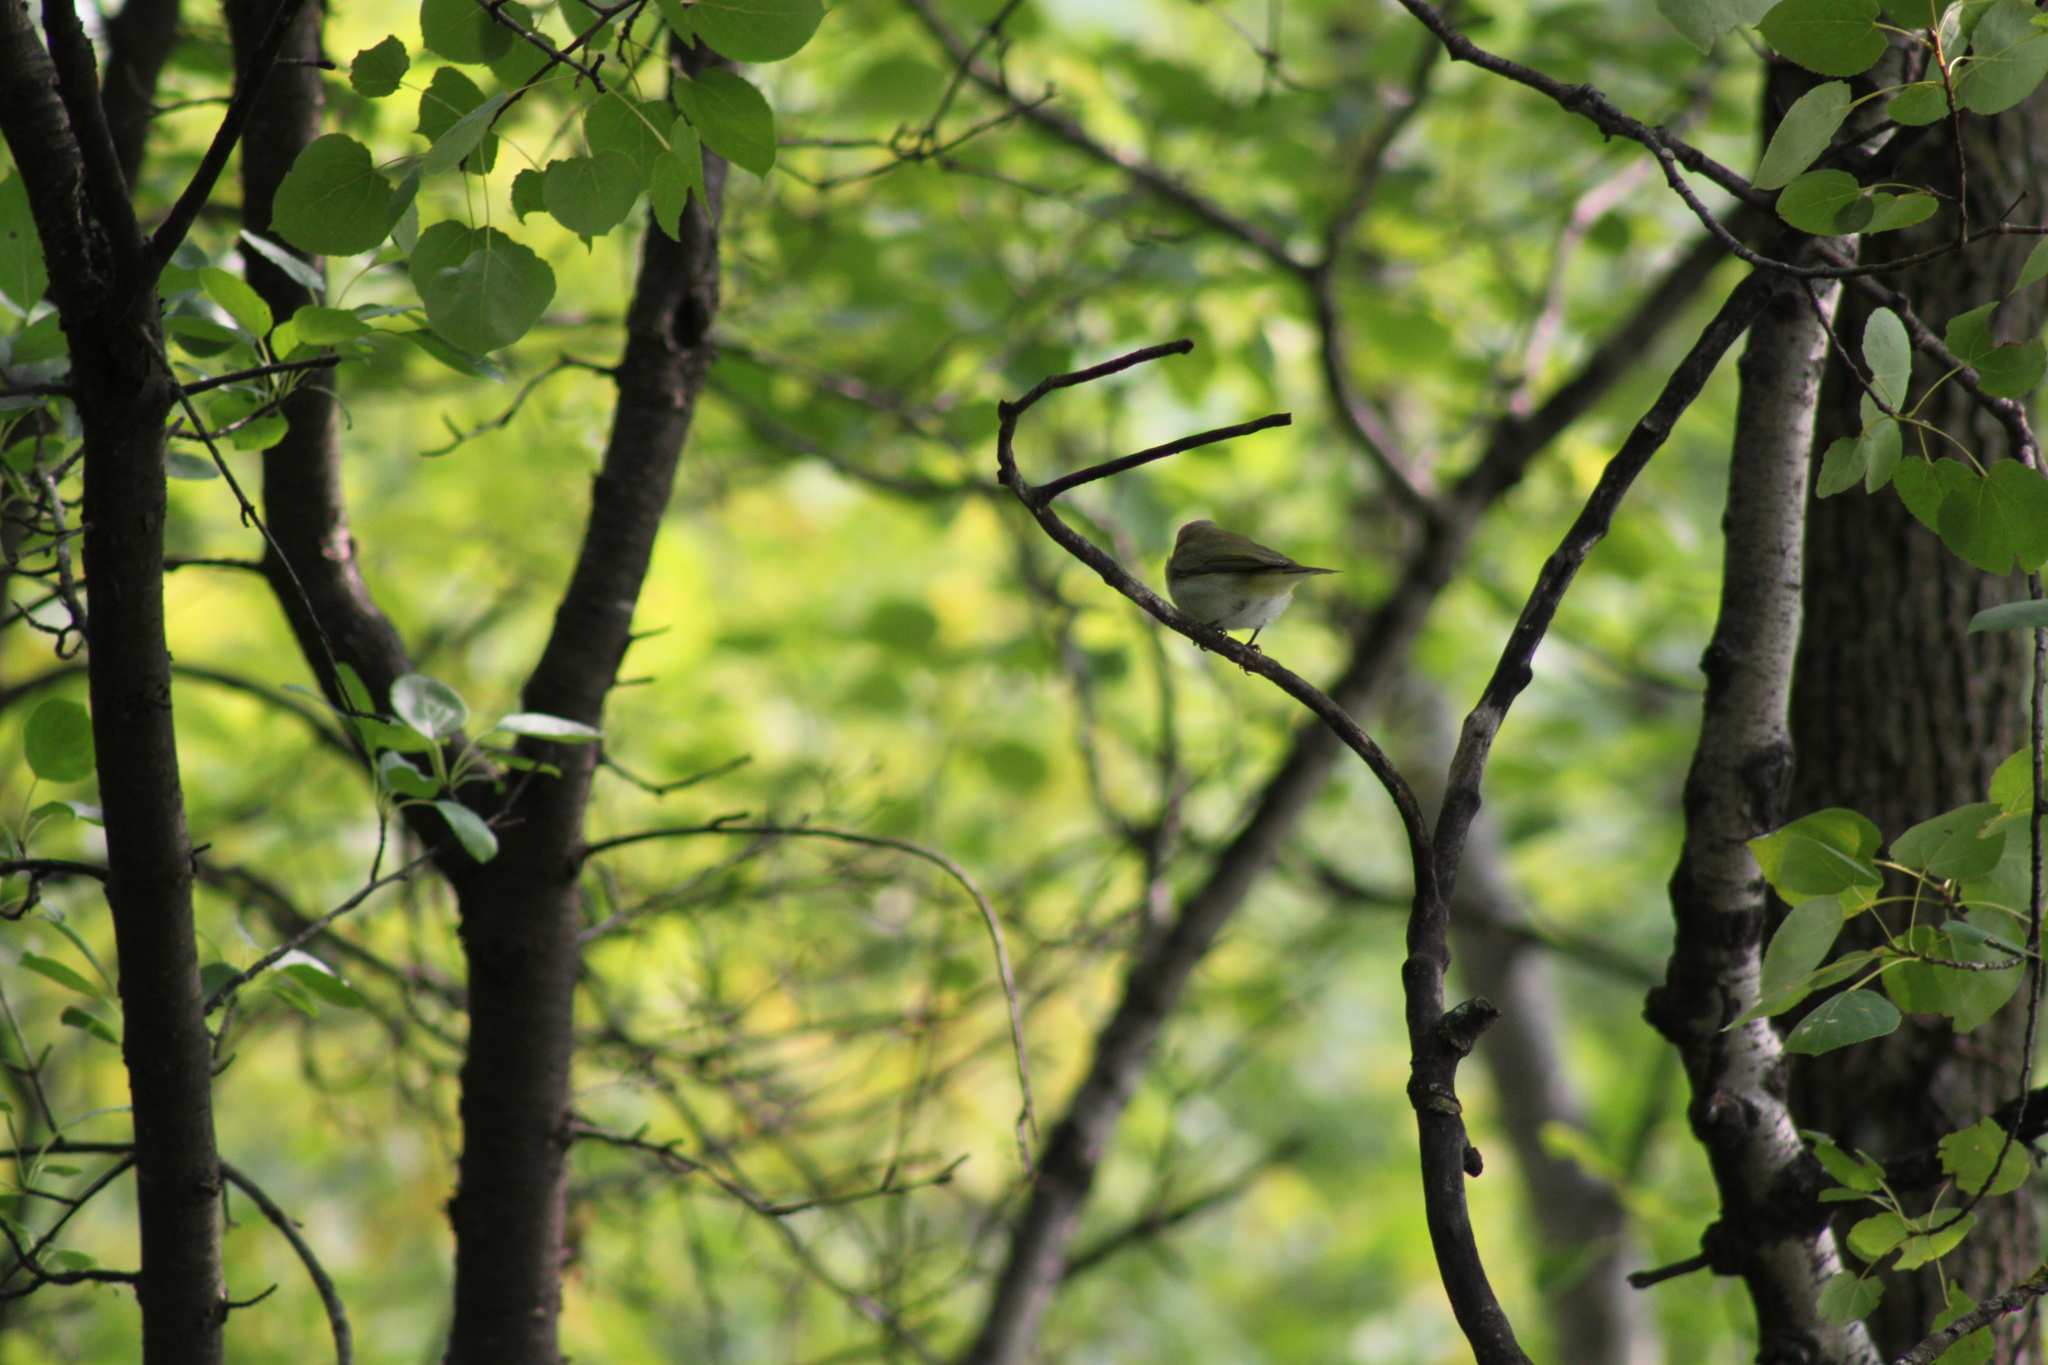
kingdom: Animalia
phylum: Chordata
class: Aves
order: Passeriformes
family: Vireonidae
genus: Vireo
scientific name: Vireo olivaceus
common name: Red-eyed vireo
